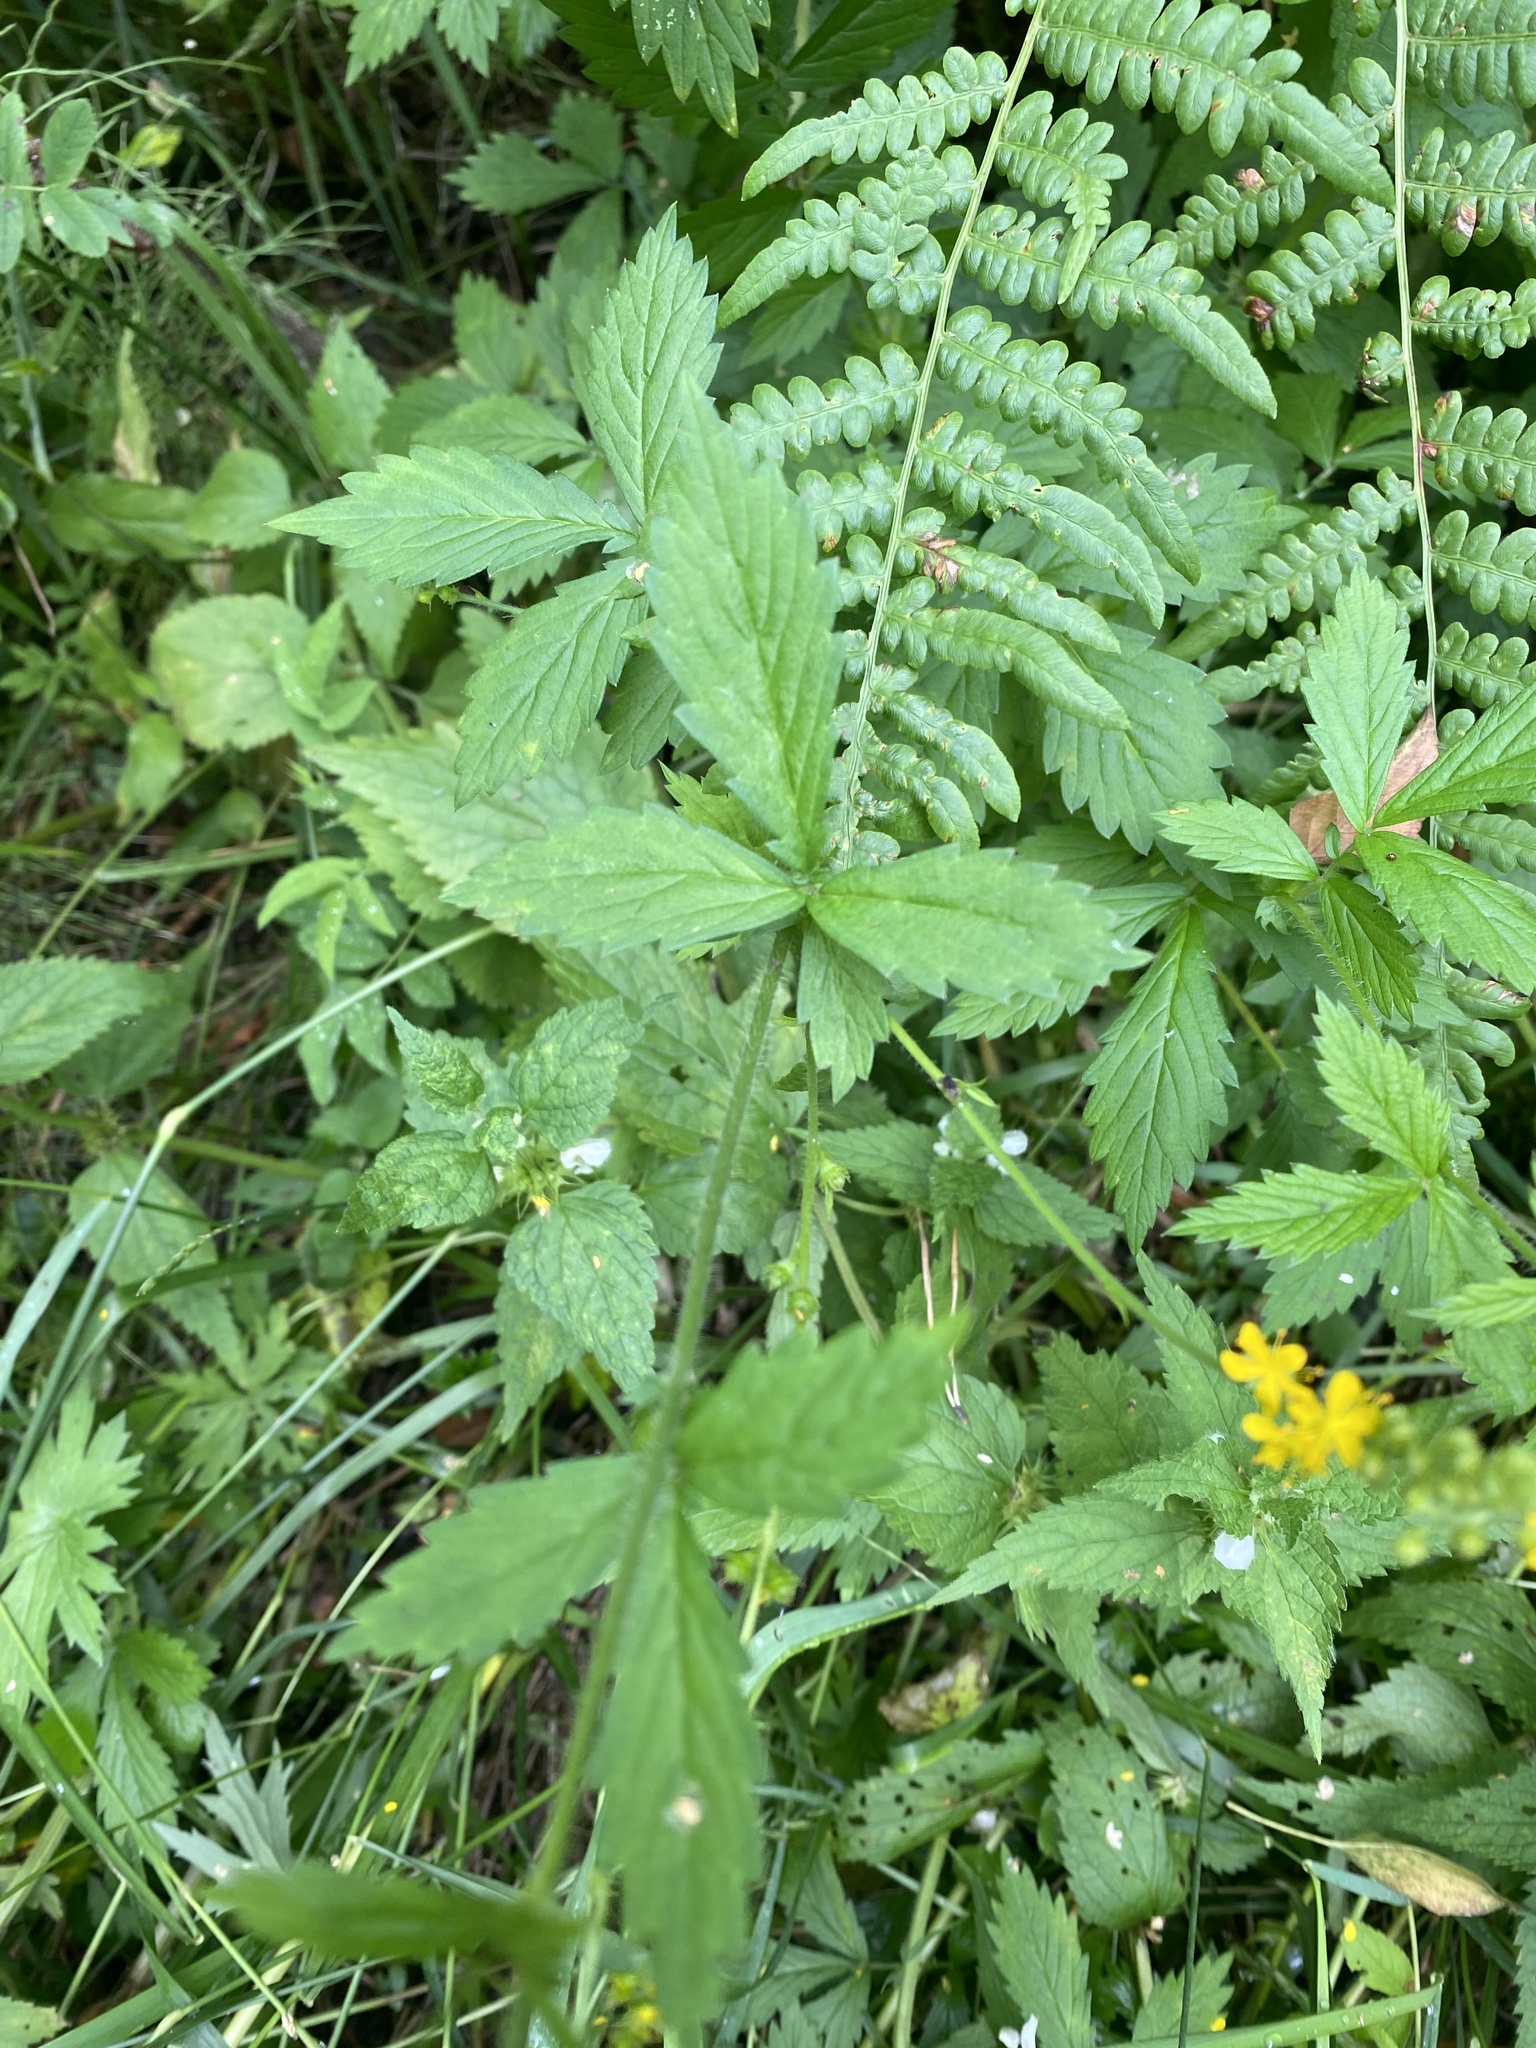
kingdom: Plantae
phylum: Tracheophyta
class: Magnoliopsida
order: Rosales
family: Rosaceae
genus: Agrimonia
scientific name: Agrimonia pilosa
